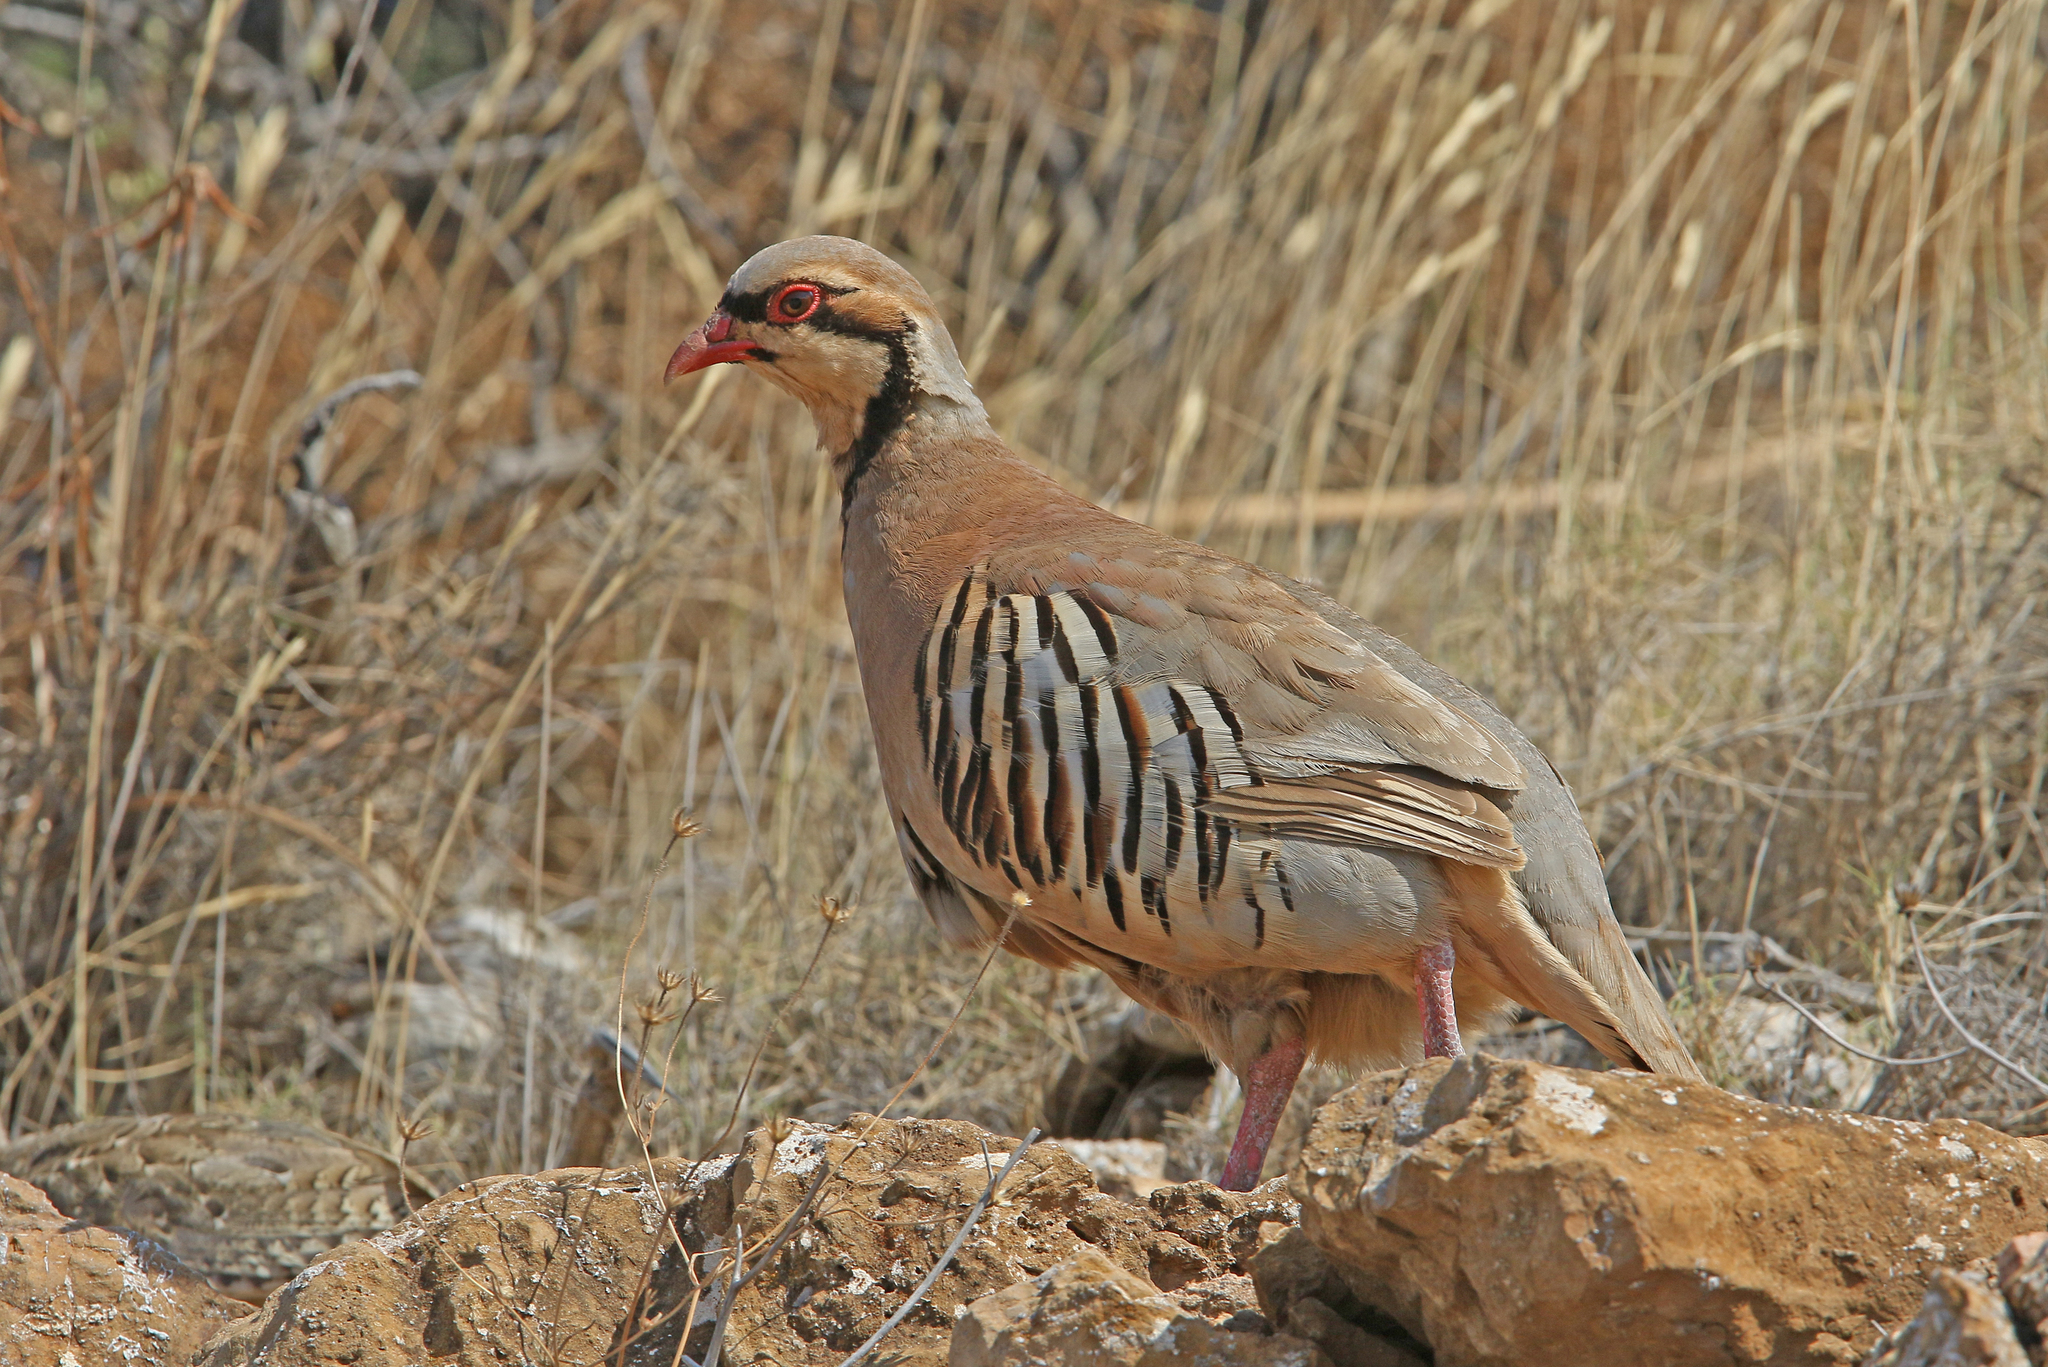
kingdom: Animalia
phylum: Chordata
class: Aves
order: Galliformes
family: Phasianidae
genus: Alectoris
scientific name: Alectoris chukar
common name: Chukar
